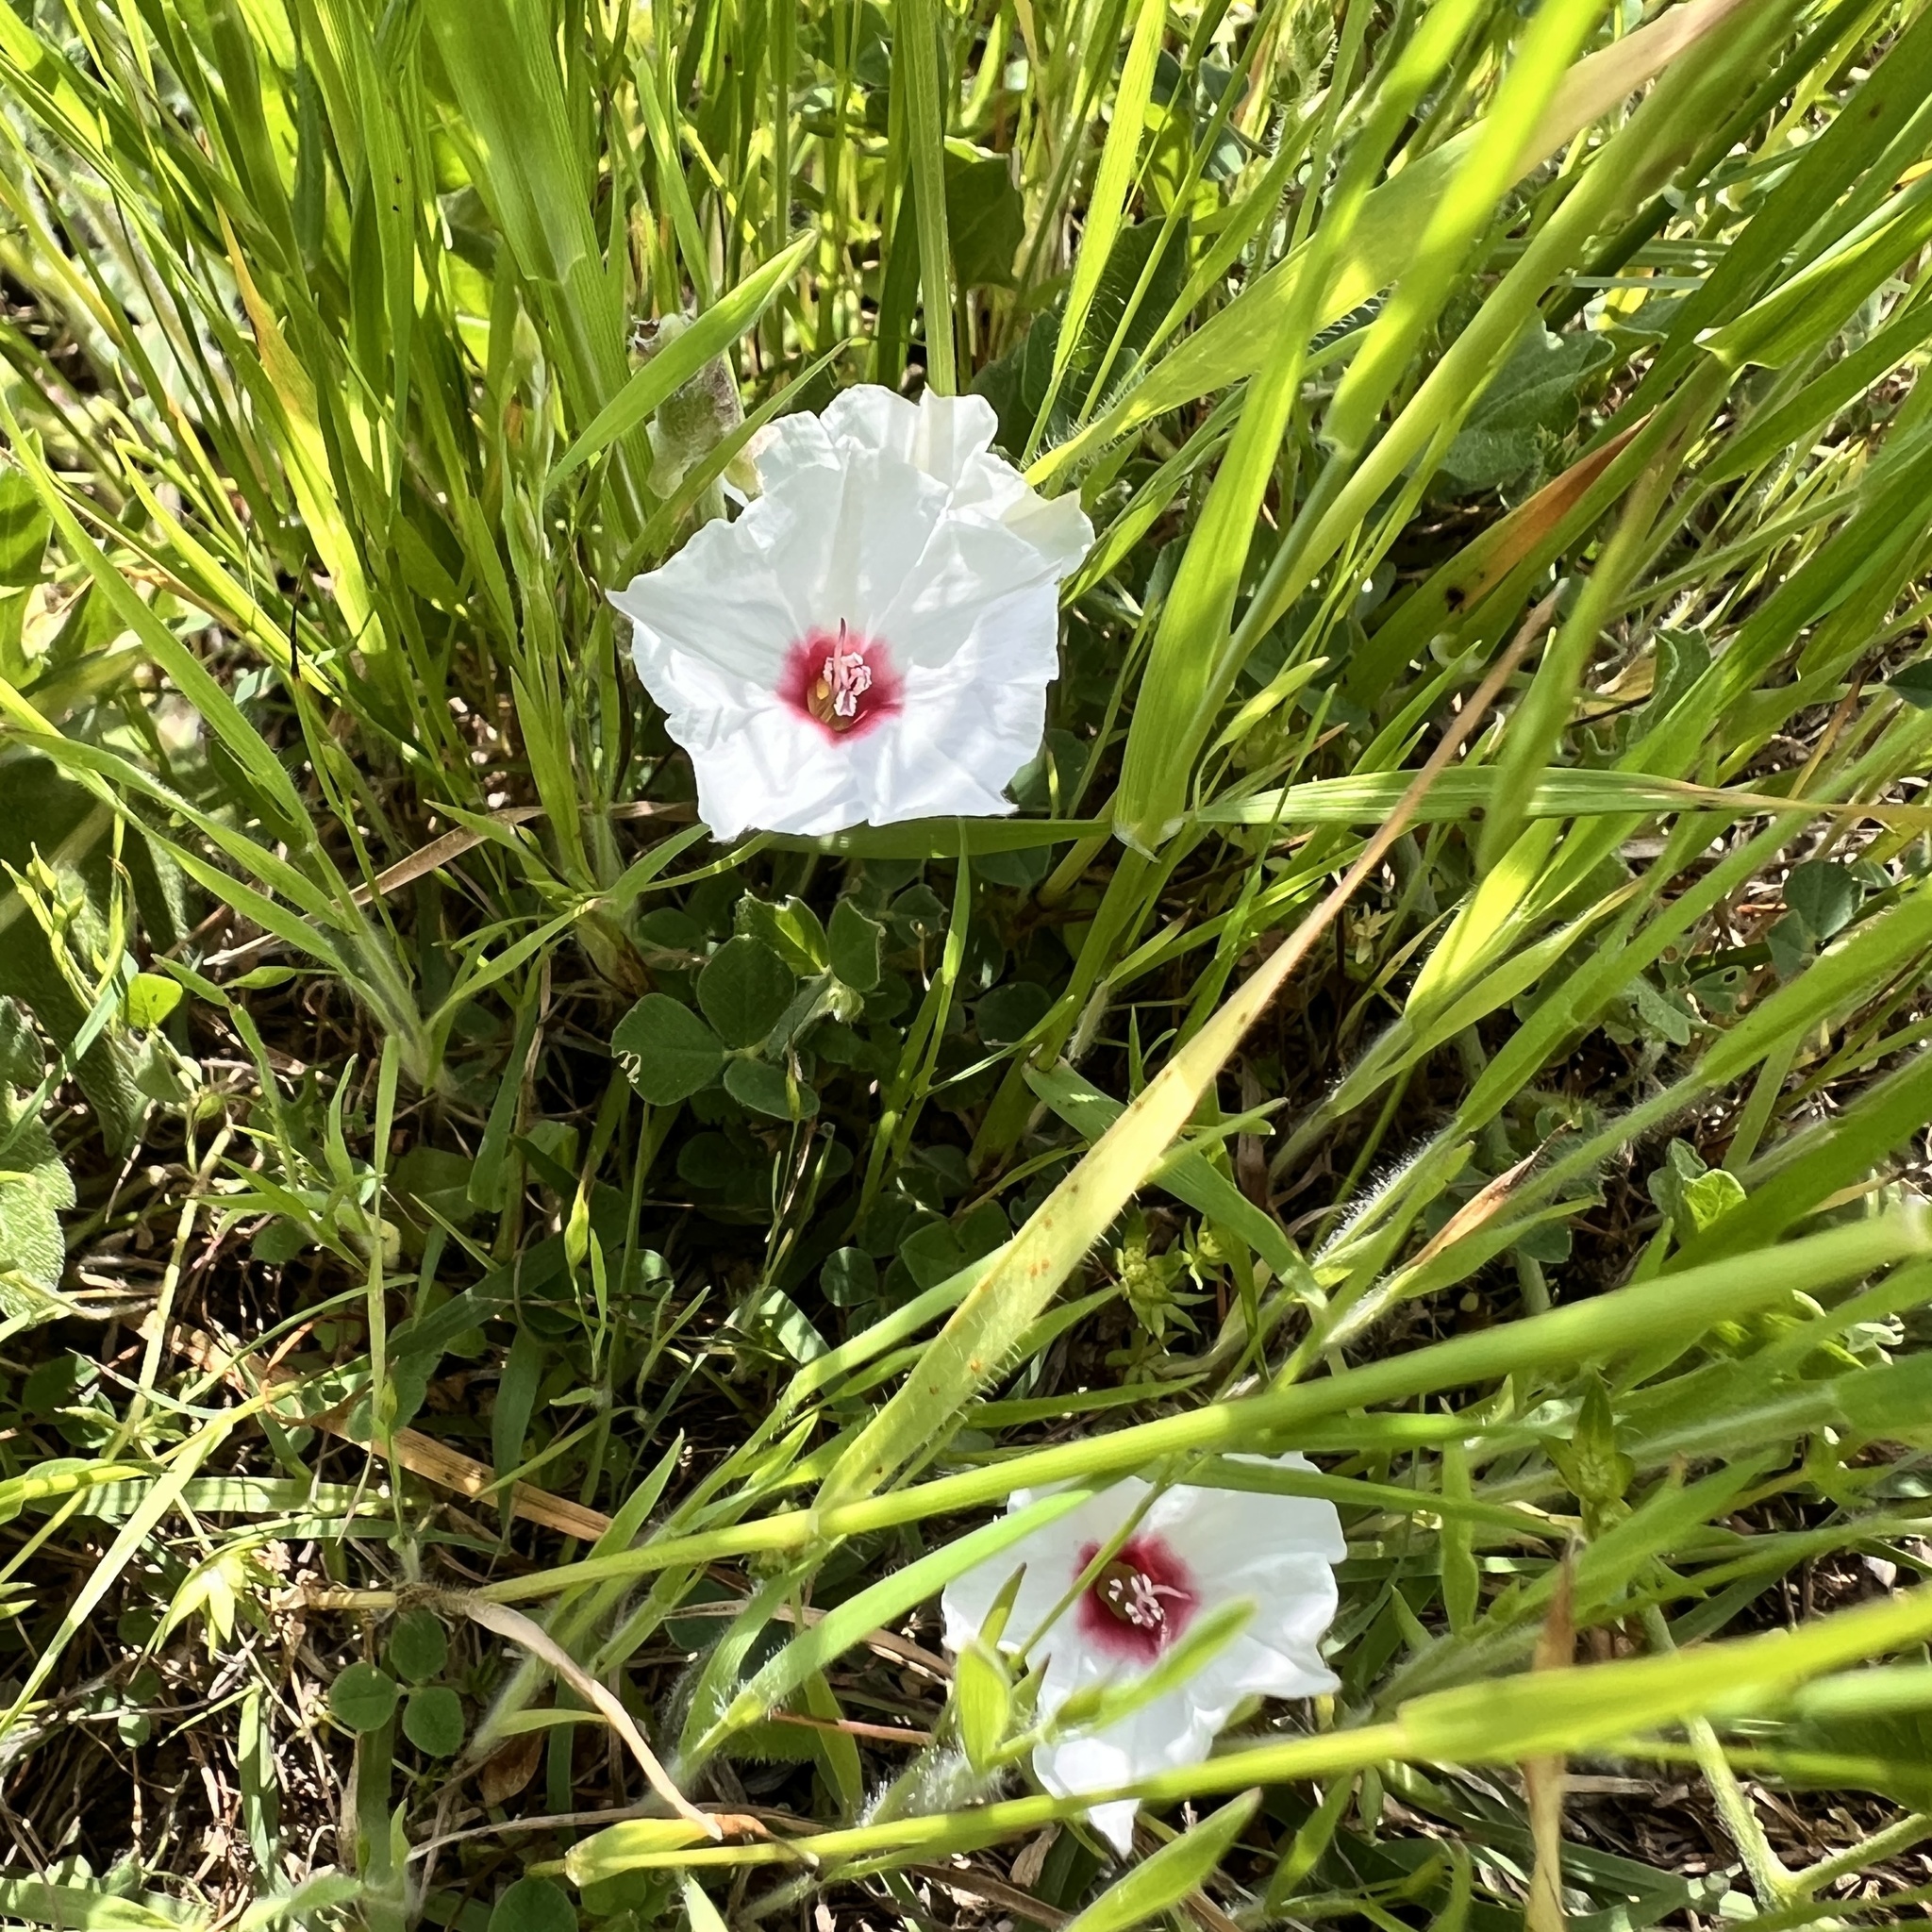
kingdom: Plantae
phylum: Tracheophyta
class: Magnoliopsida
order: Solanales
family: Convolvulaceae
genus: Convolvulus
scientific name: Convolvulus equitans
